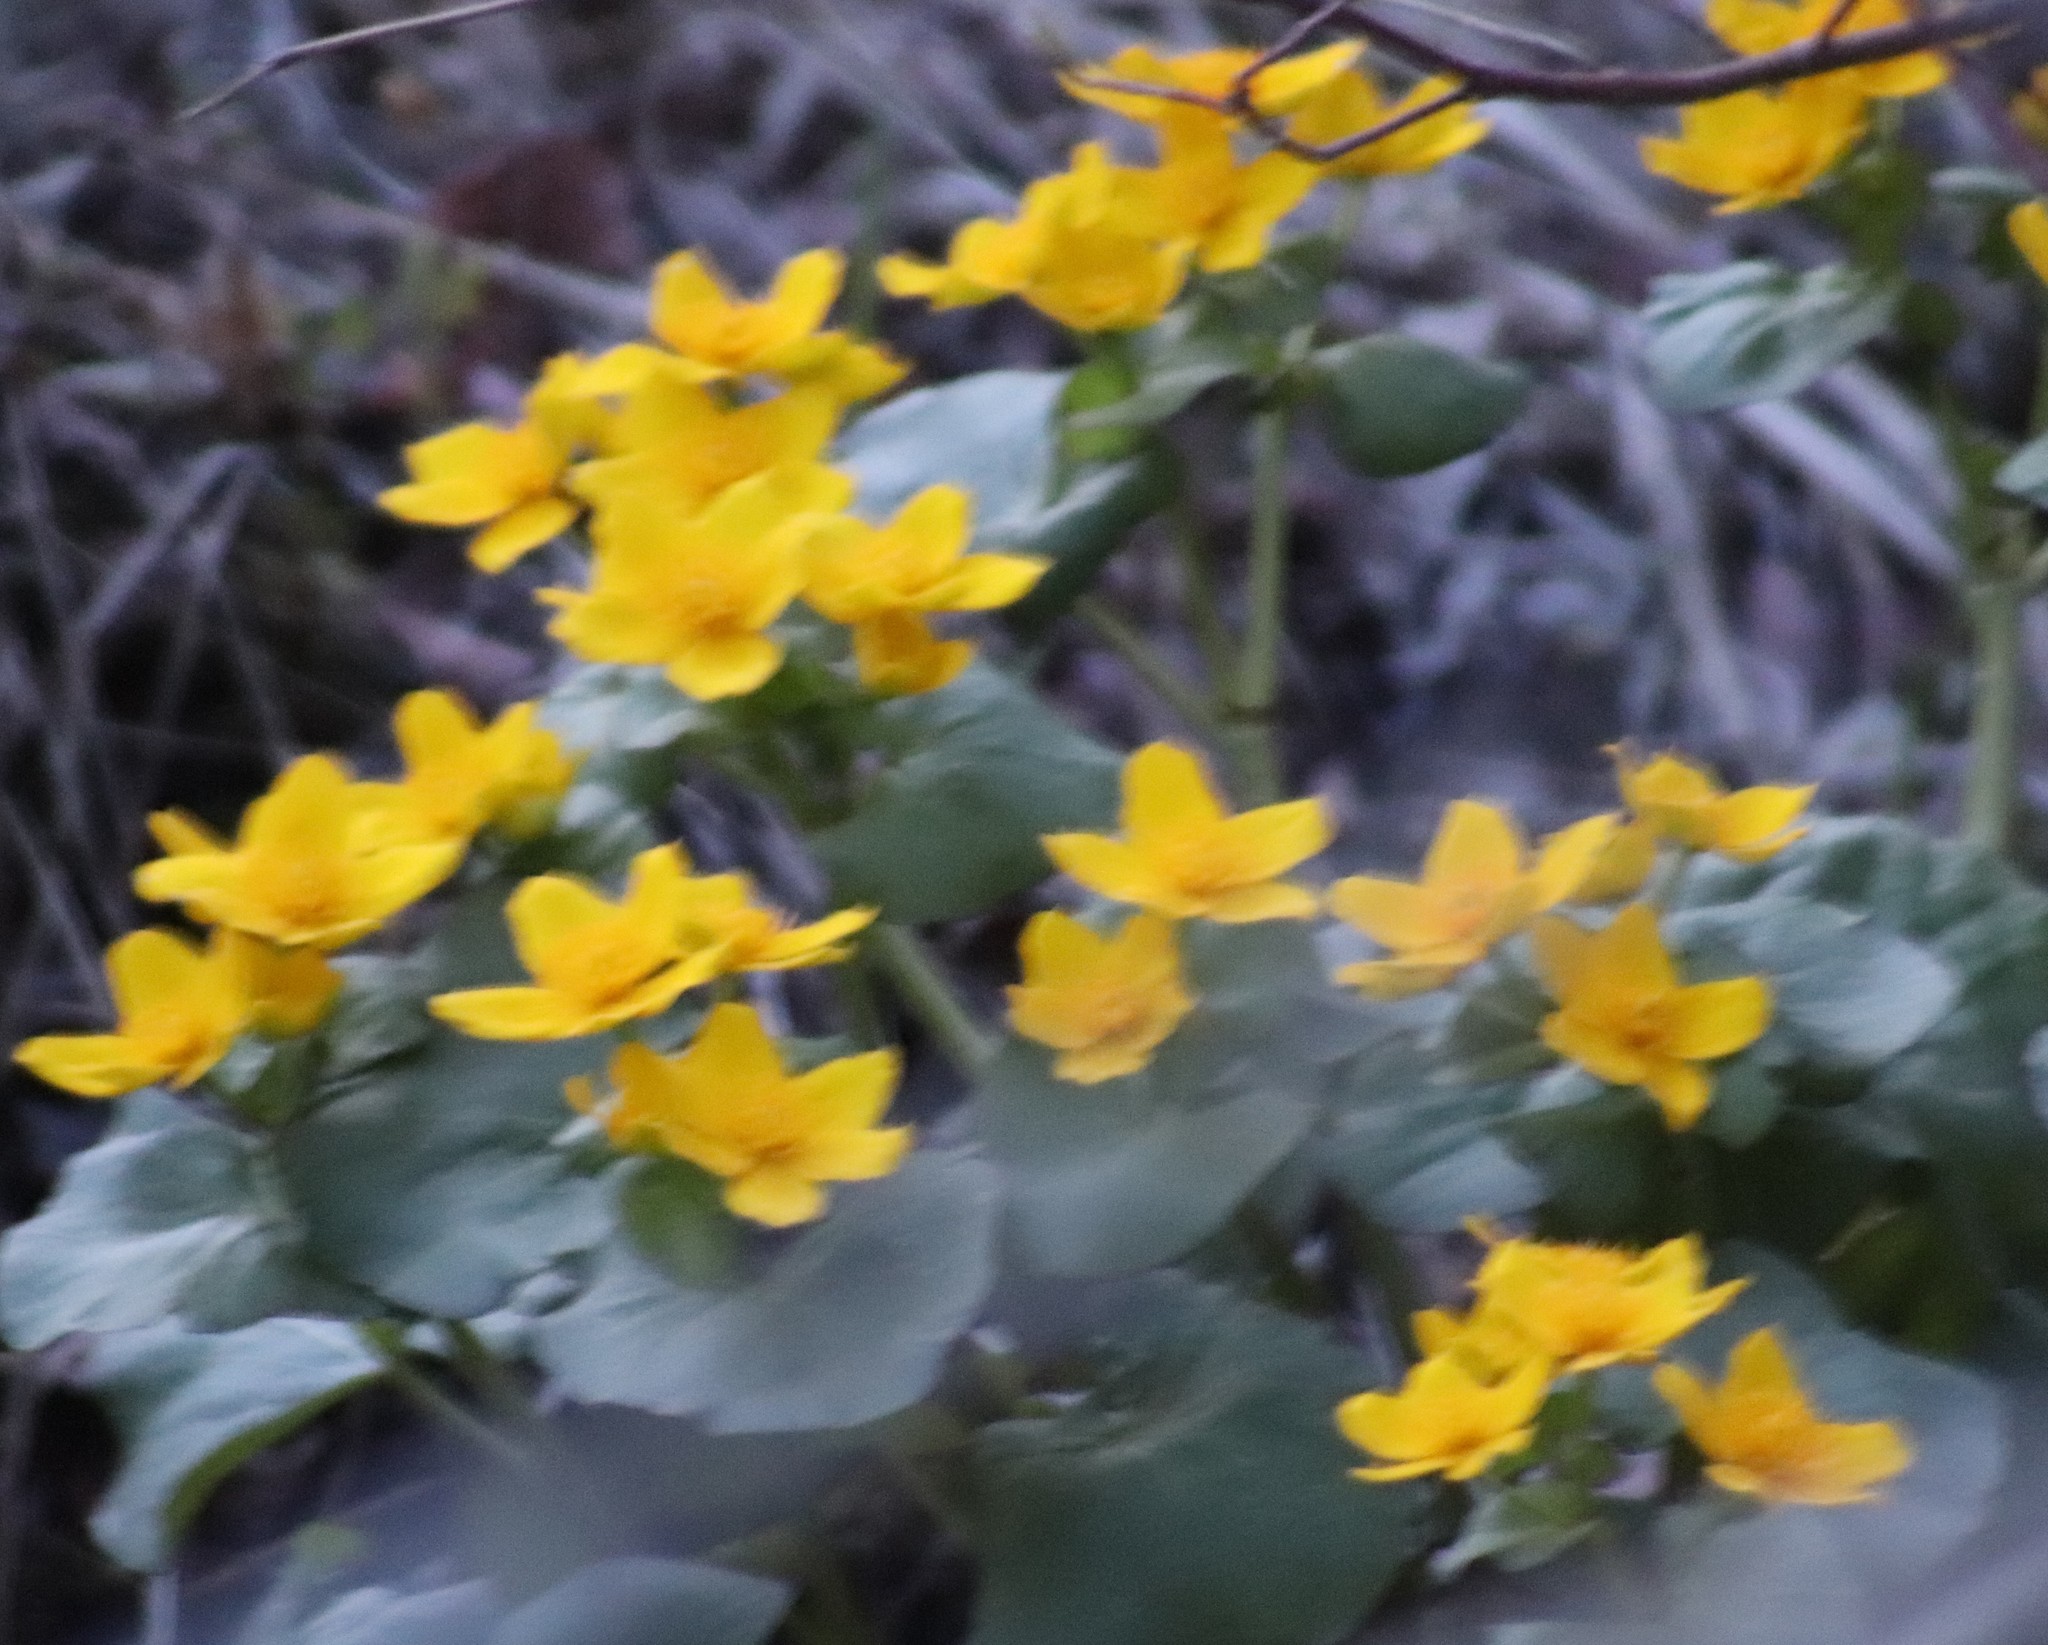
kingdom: Plantae
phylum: Tracheophyta
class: Magnoliopsida
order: Ranunculales
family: Ranunculaceae
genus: Caltha
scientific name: Caltha palustris
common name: Marsh marigold
